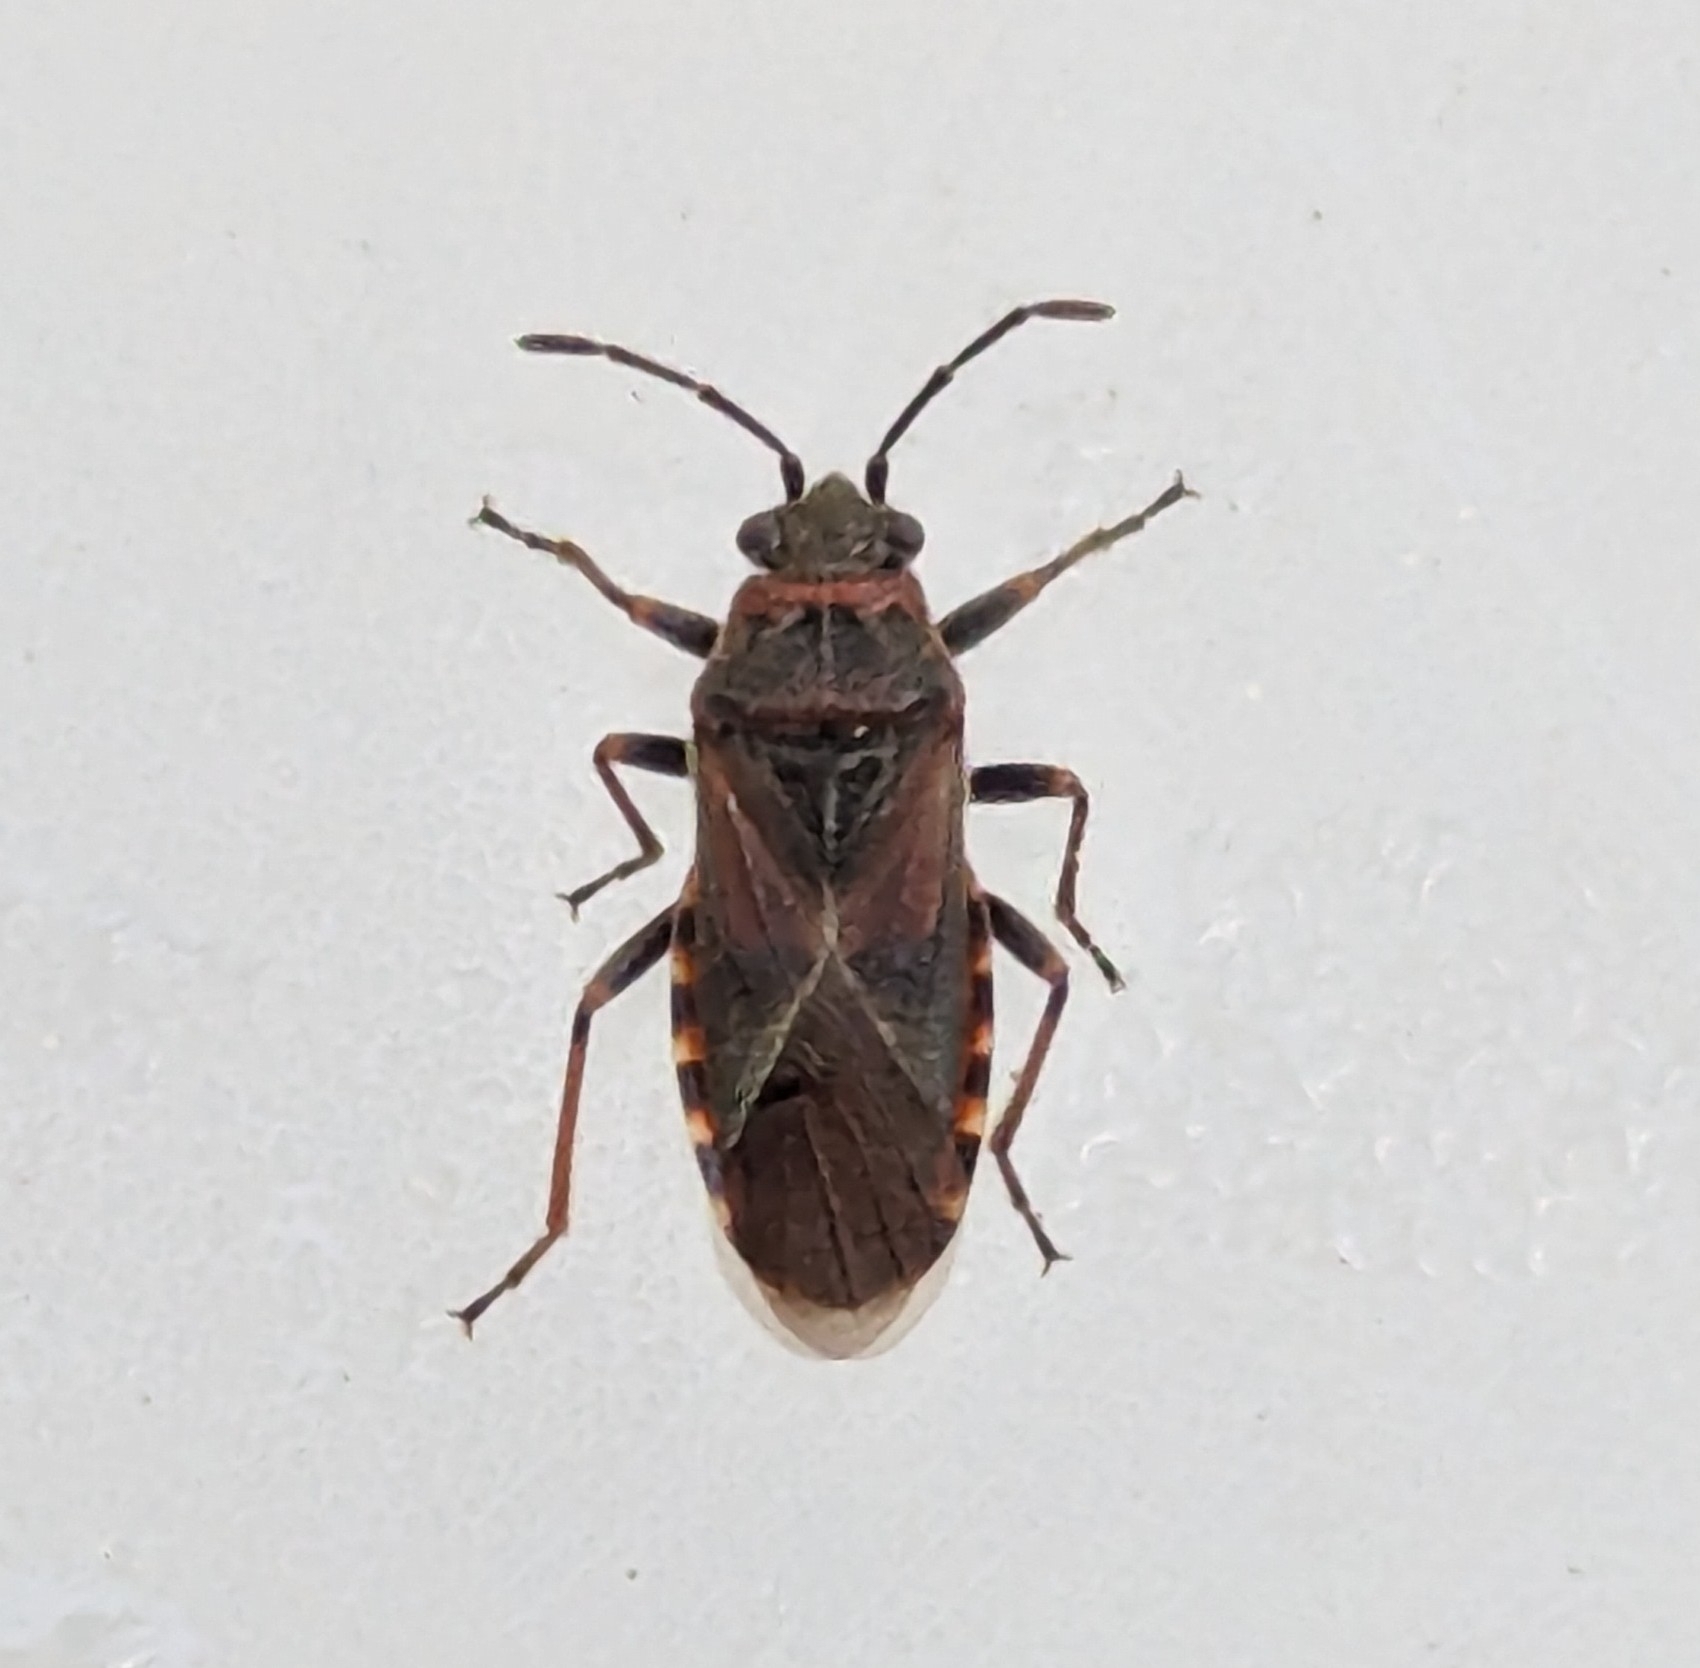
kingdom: Animalia
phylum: Arthropoda
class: Insecta
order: Hemiptera
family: Lygaeidae
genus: Arocatus
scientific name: Arocatus melanocephalus
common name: Lygaeid bug
